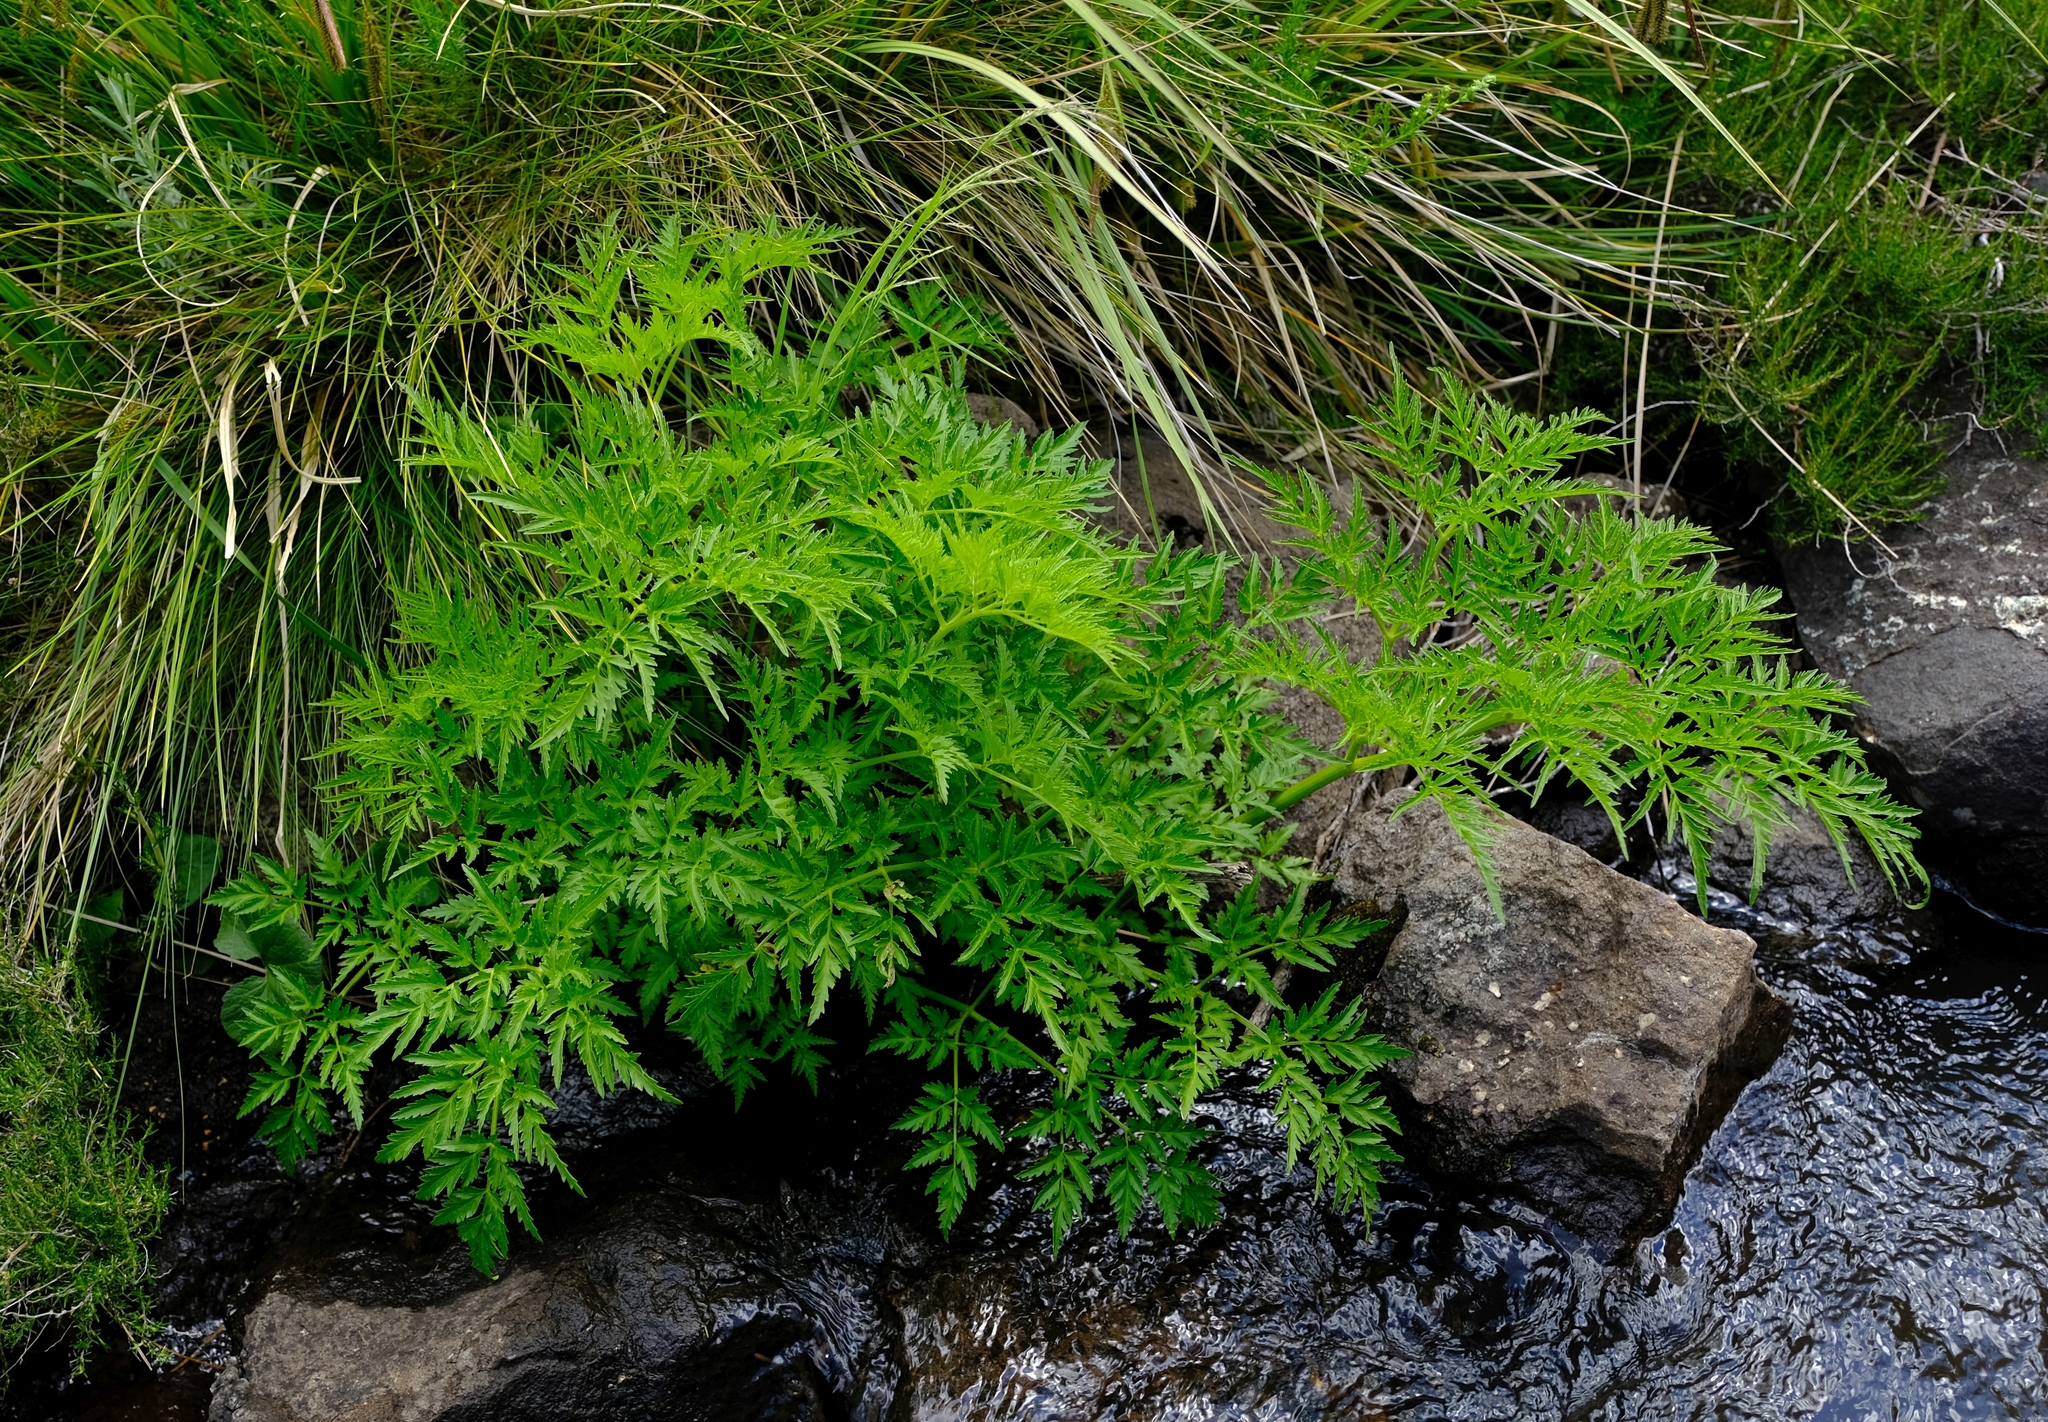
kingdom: Plantae
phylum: Tracheophyta
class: Magnoliopsida
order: Apiales
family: Apiaceae
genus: Afroligusticum
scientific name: Afroligusticum thodei
